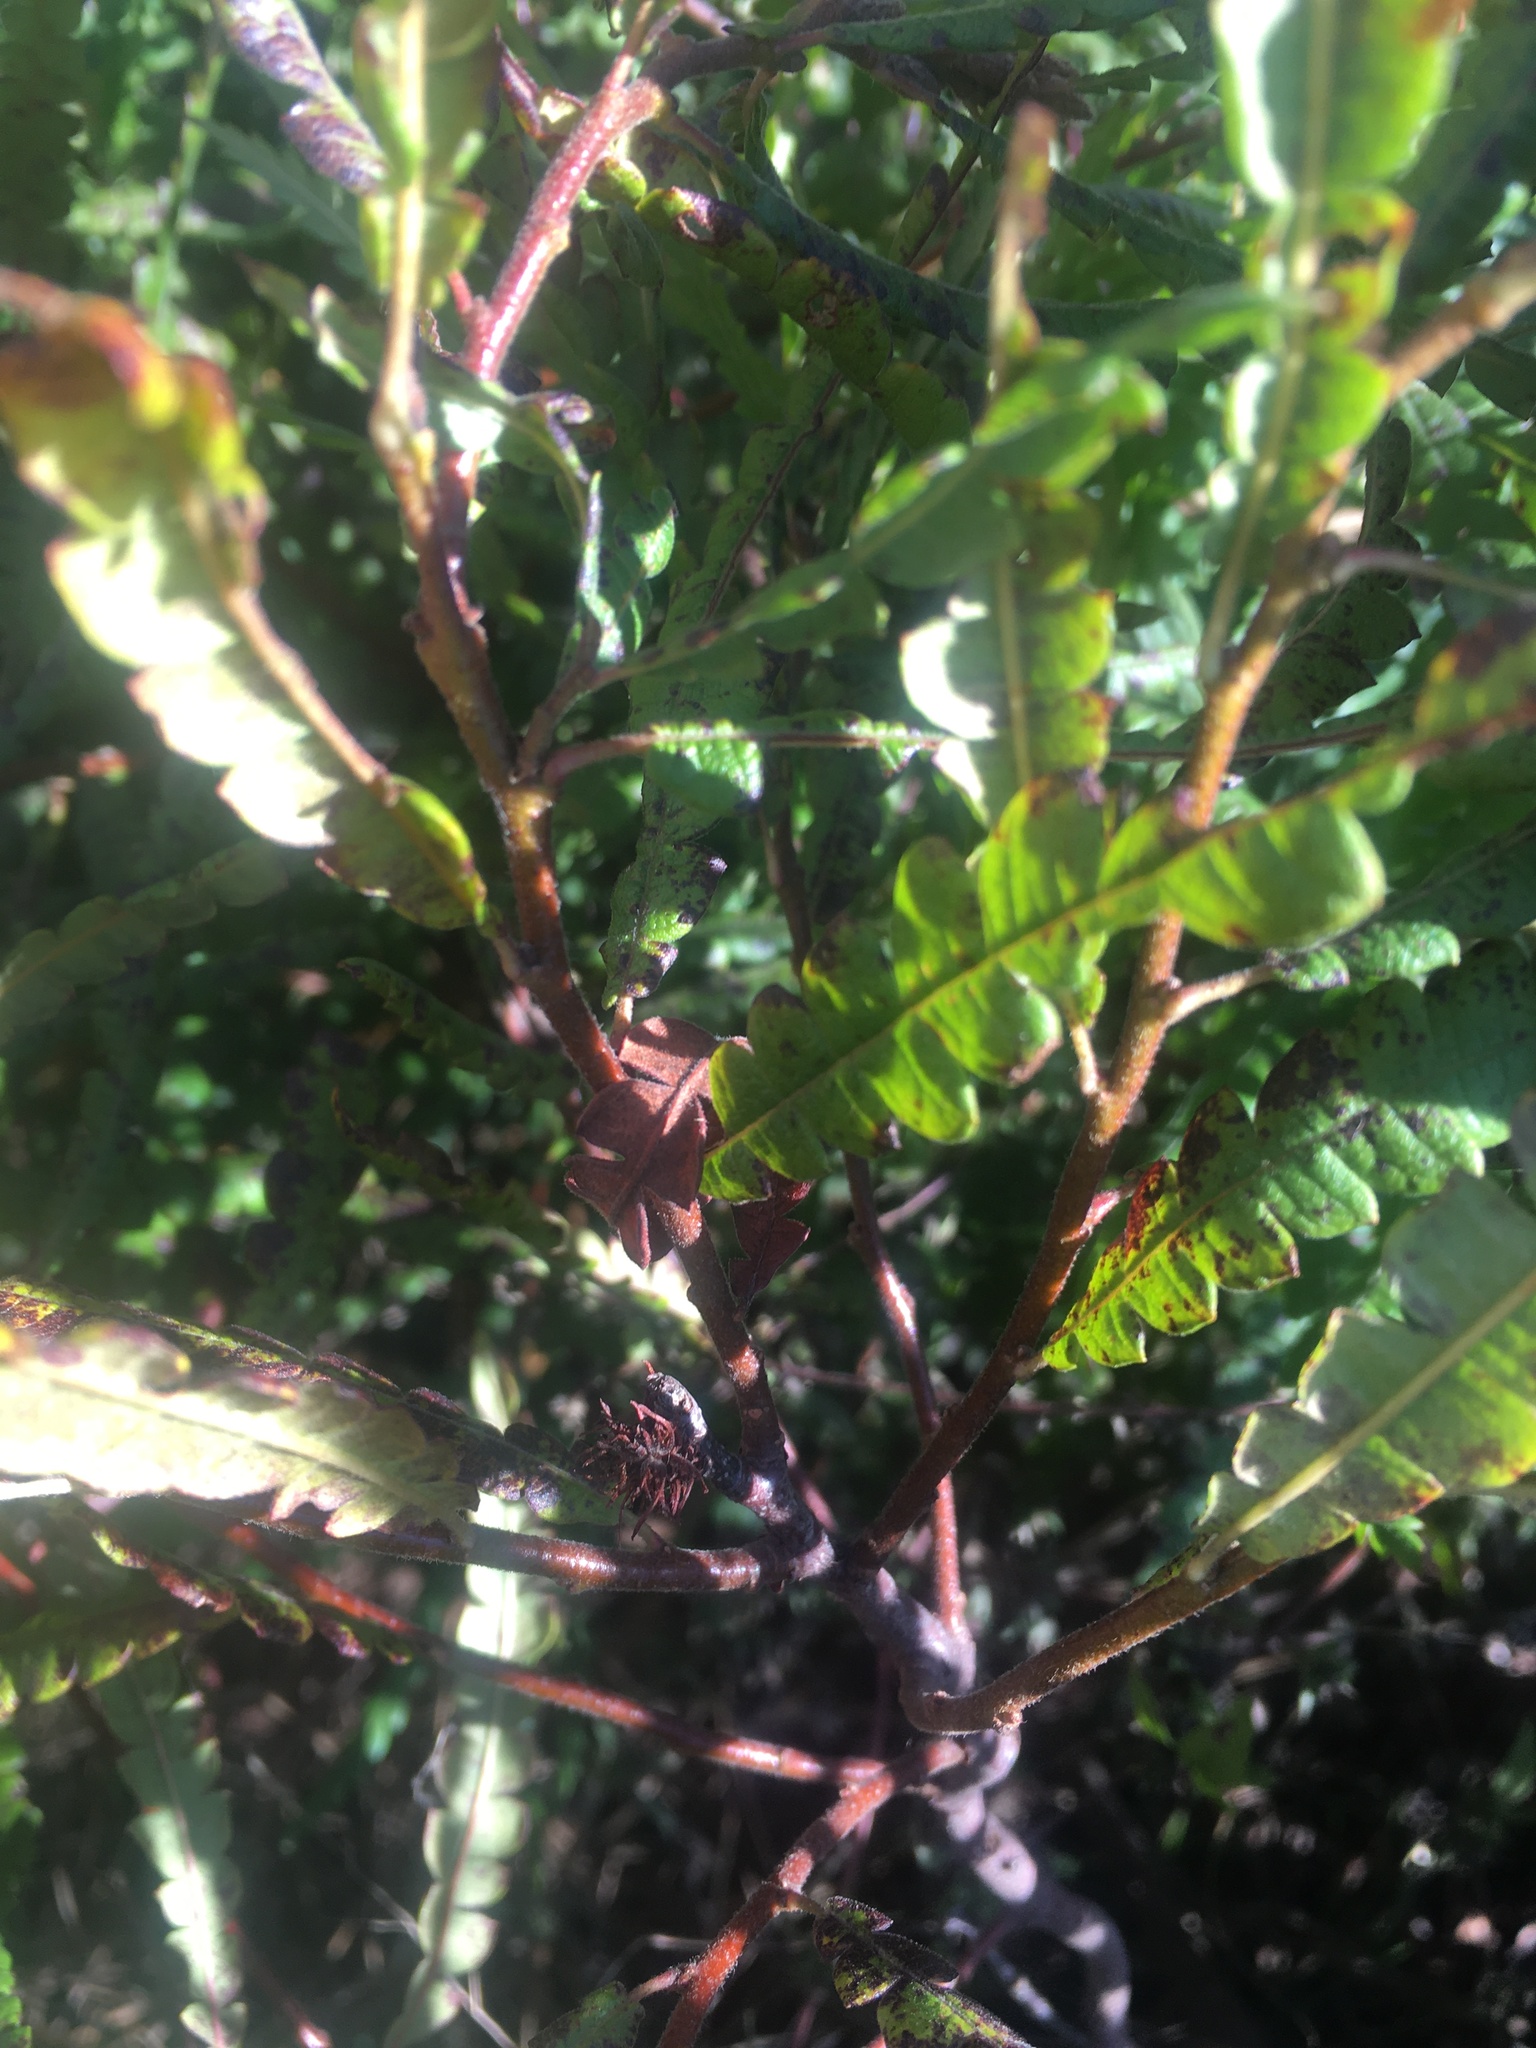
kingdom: Plantae
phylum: Tracheophyta
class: Magnoliopsida
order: Fagales
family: Myricaceae
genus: Comptonia
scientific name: Comptonia peregrina
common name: Sweet-fern
